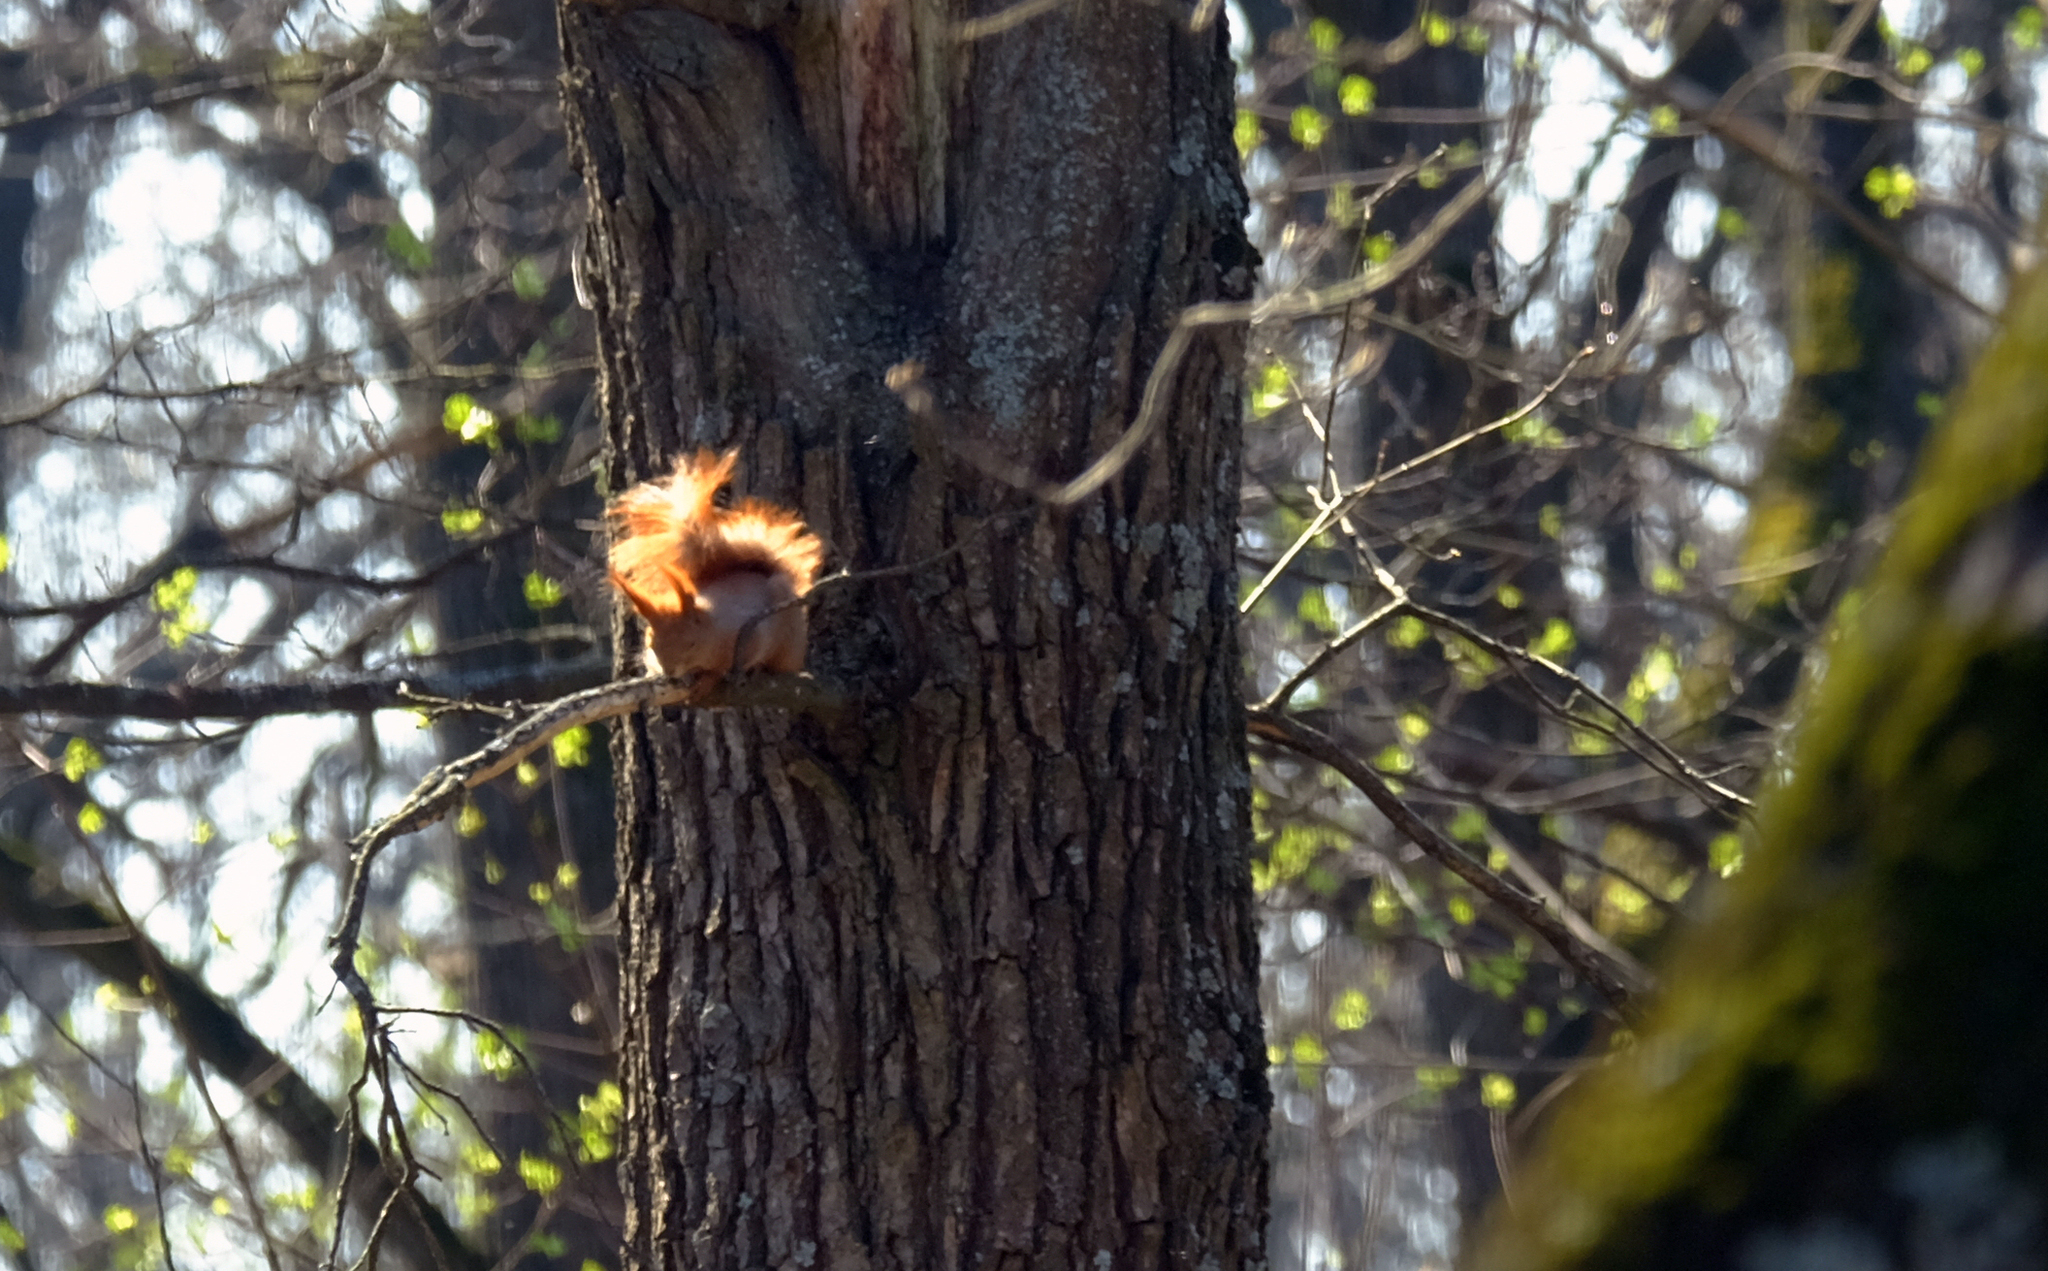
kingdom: Animalia
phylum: Chordata
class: Mammalia
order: Rodentia
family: Sciuridae
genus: Sciurus
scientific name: Sciurus vulgaris
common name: Eurasian red squirrel
